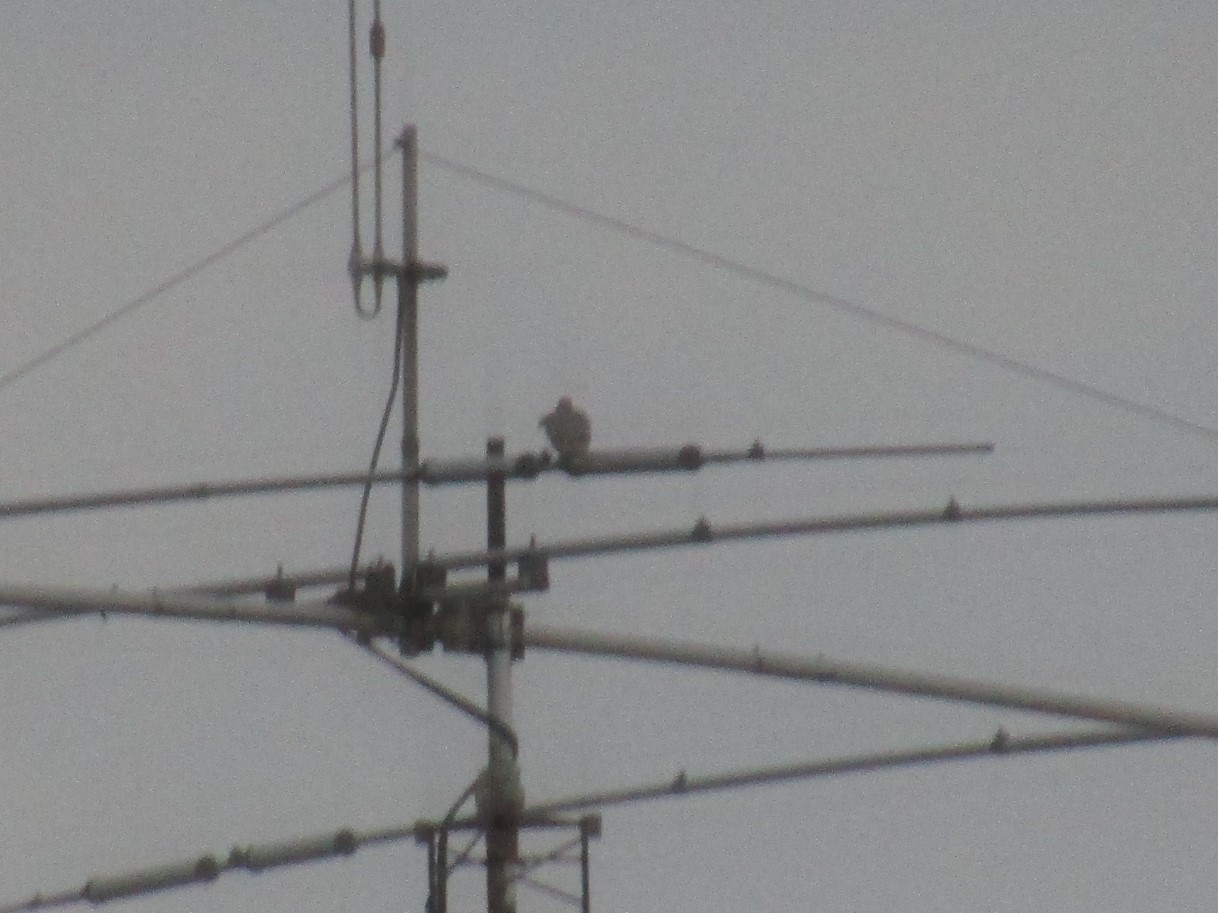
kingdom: Animalia
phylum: Chordata
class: Aves
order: Columbiformes
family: Columbidae
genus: Zenaida
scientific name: Zenaida auriculata
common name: Eared dove
